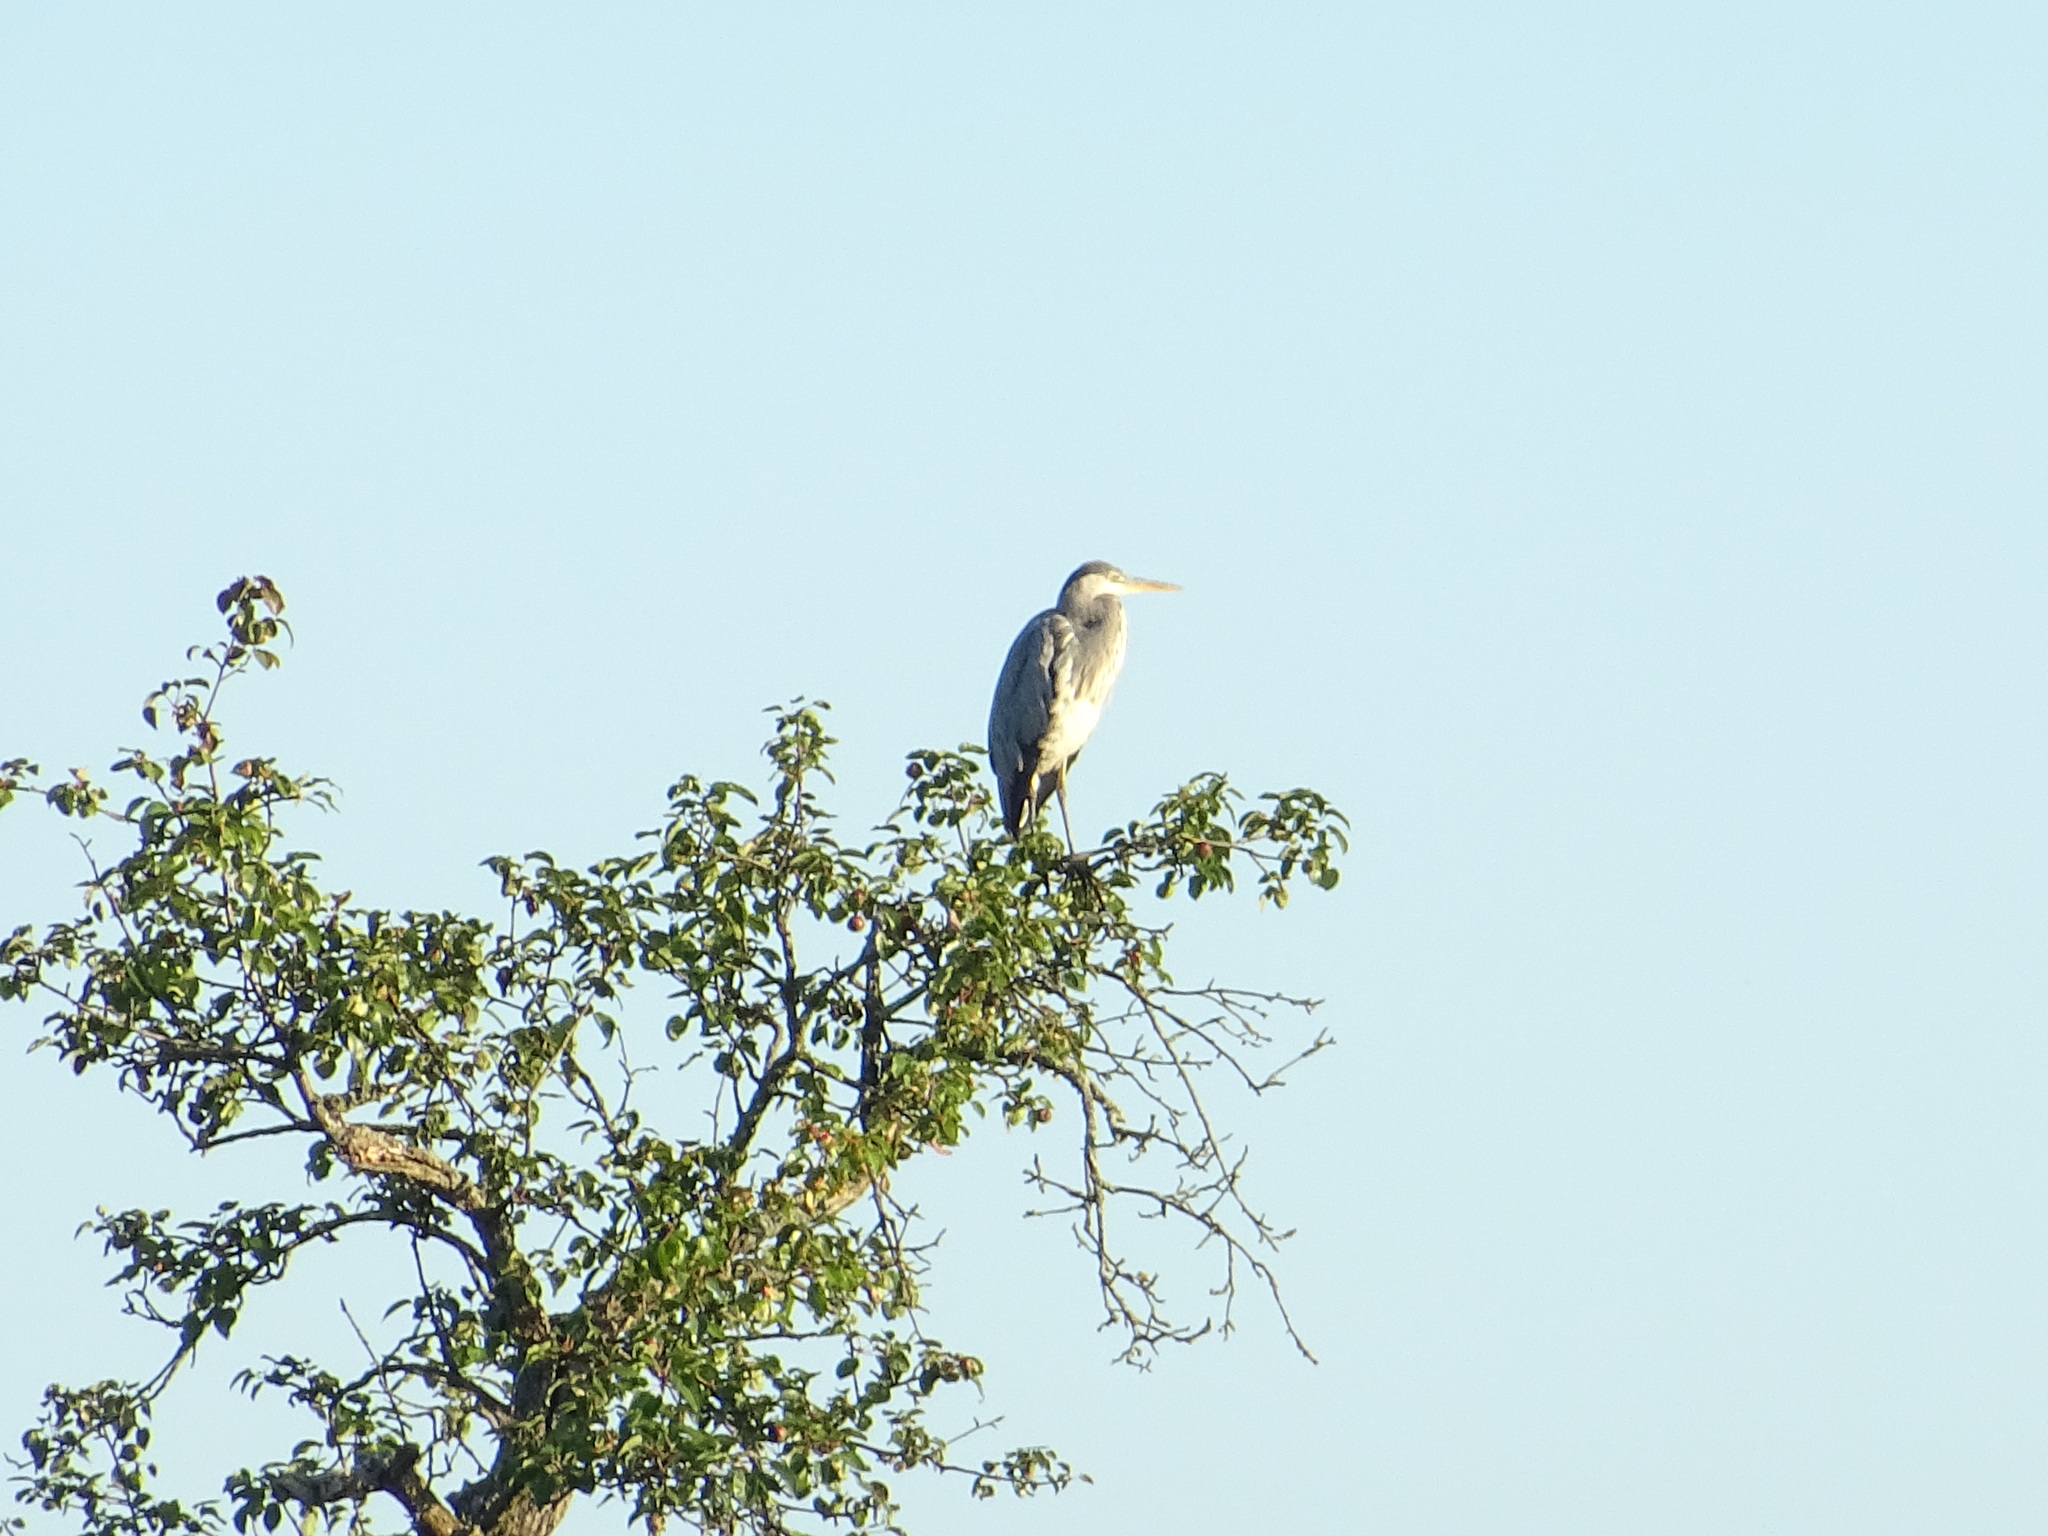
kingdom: Animalia
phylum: Chordata
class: Aves
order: Pelecaniformes
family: Ardeidae
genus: Ardea
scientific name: Ardea cinerea
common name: Grey heron
